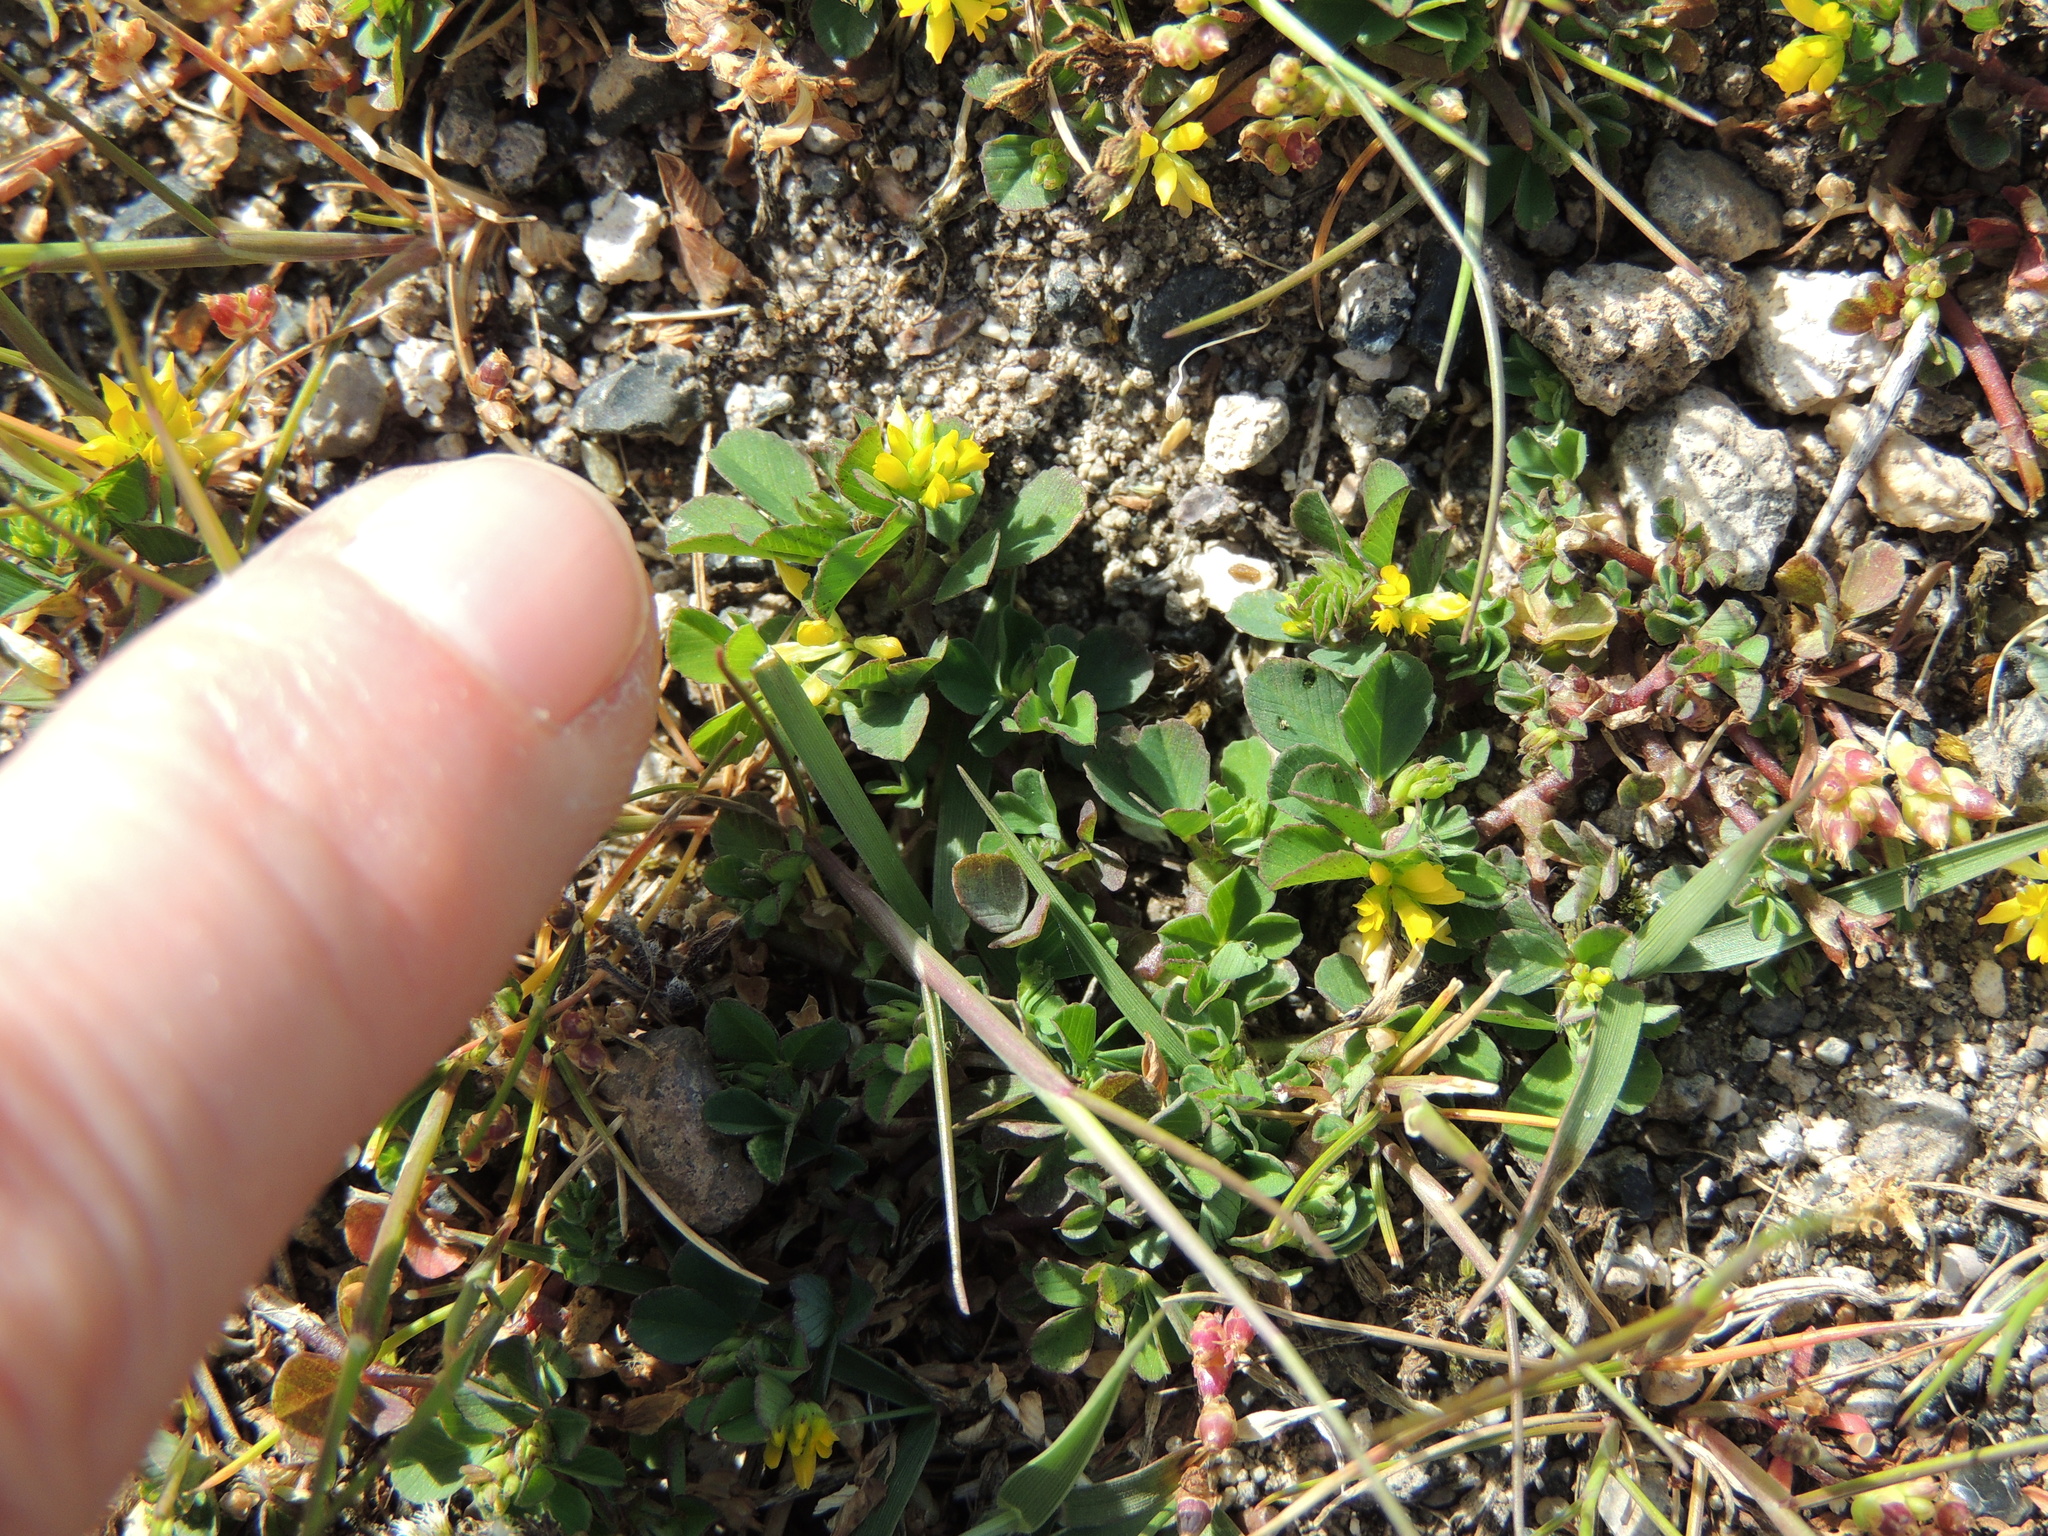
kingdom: Plantae
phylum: Tracheophyta
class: Magnoliopsida
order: Fabales
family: Fabaceae
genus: Trifolium
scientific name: Trifolium dubium
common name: Suckling clover
